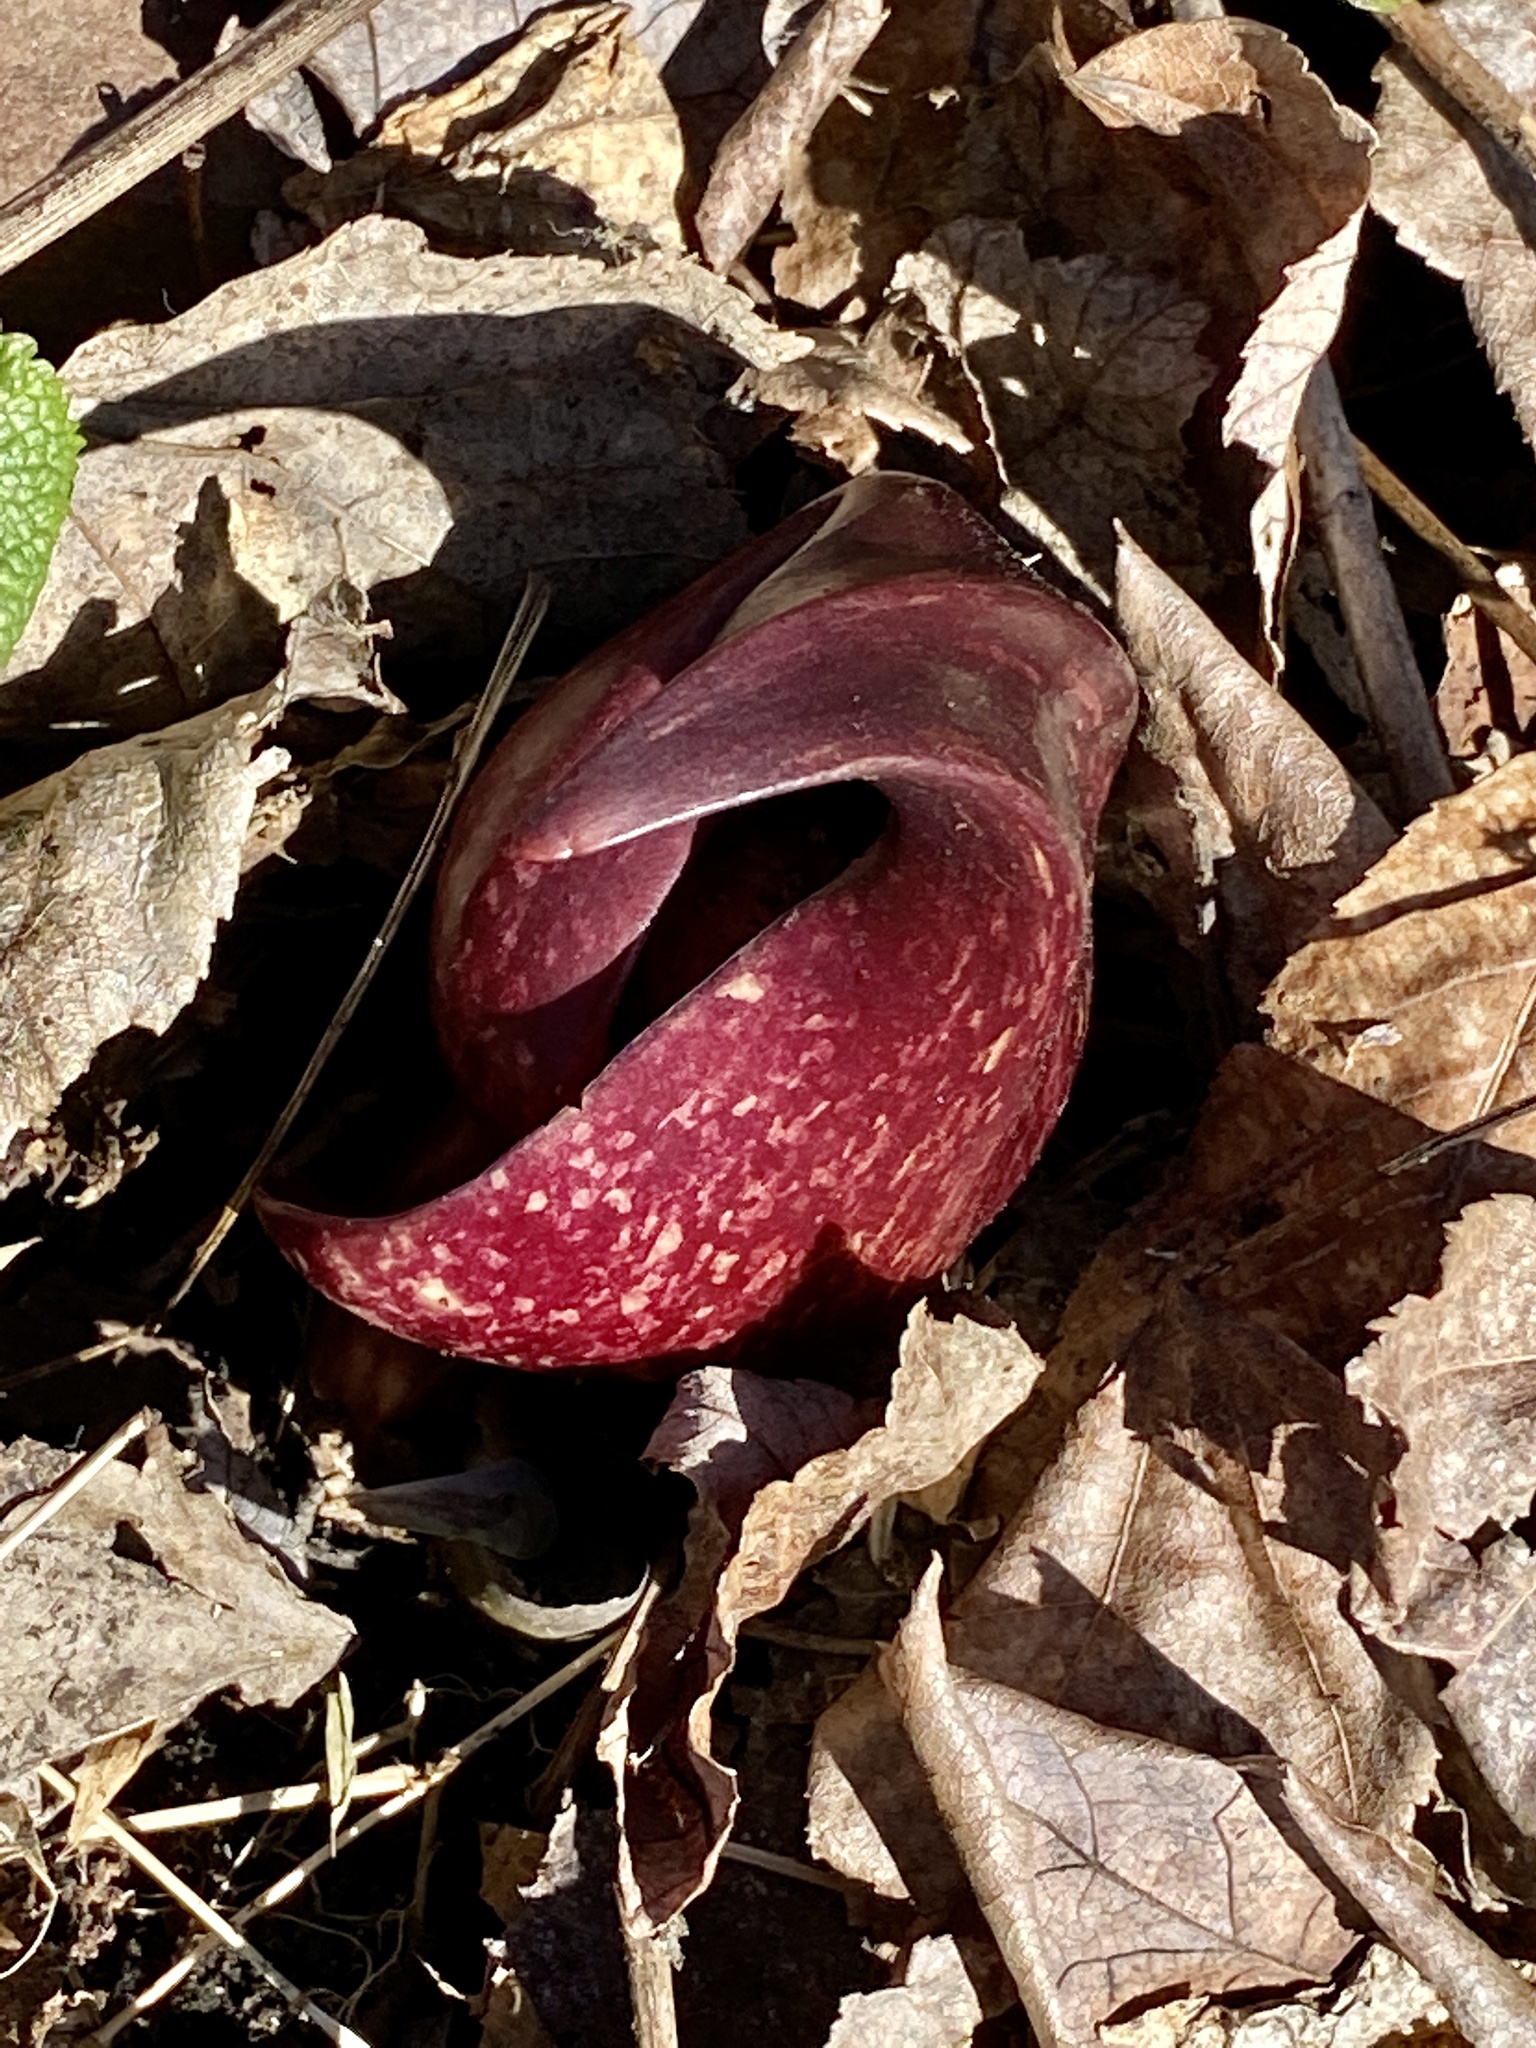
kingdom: Plantae
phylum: Tracheophyta
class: Liliopsida
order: Alismatales
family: Araceae
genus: Symplocarpus
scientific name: Symplocarpus foetidus
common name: Eastern skunk cabbage
